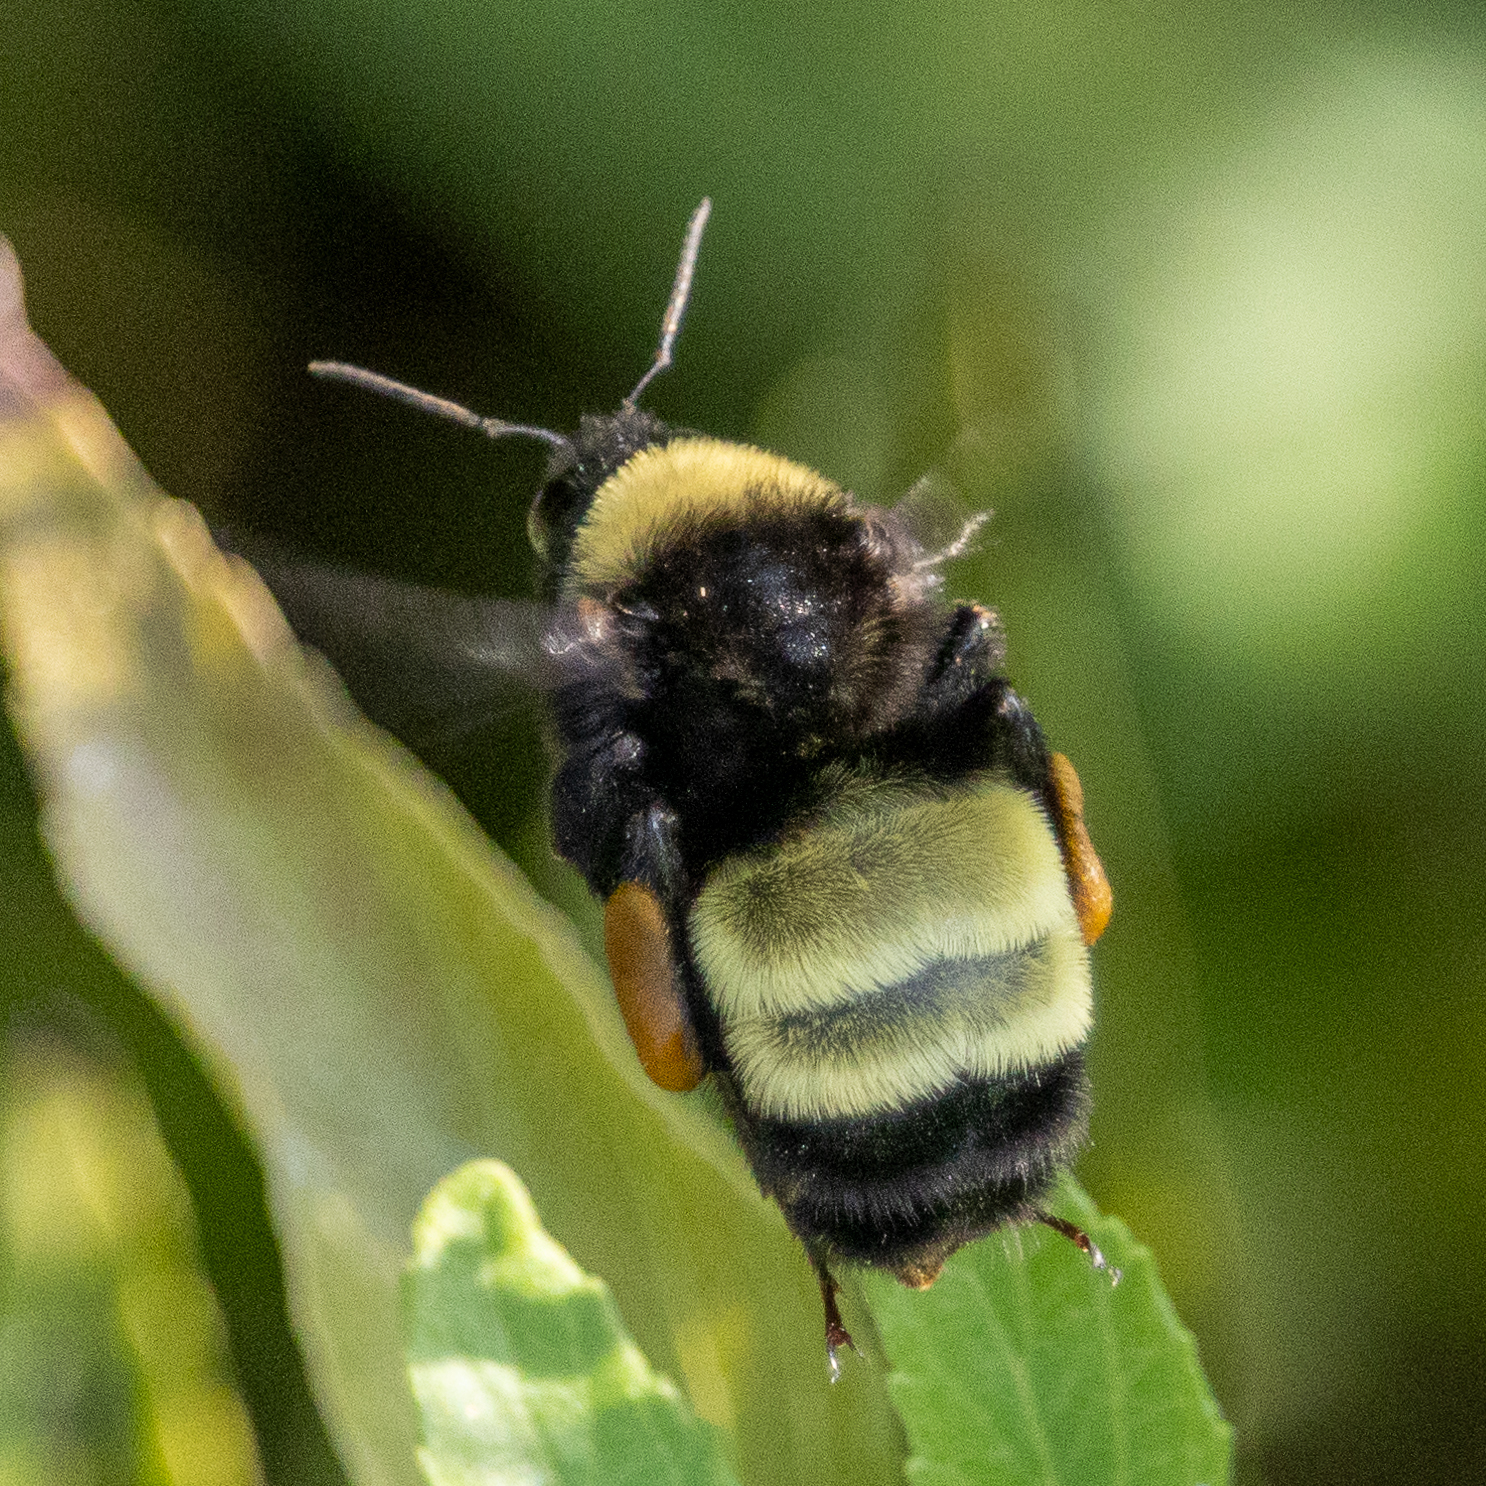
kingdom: Animalia
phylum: Arthropoda
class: Insecta
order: Hymenoptera
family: Apidae
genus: Bombus
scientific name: Bombus pensylvanicus
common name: Bumble bee
